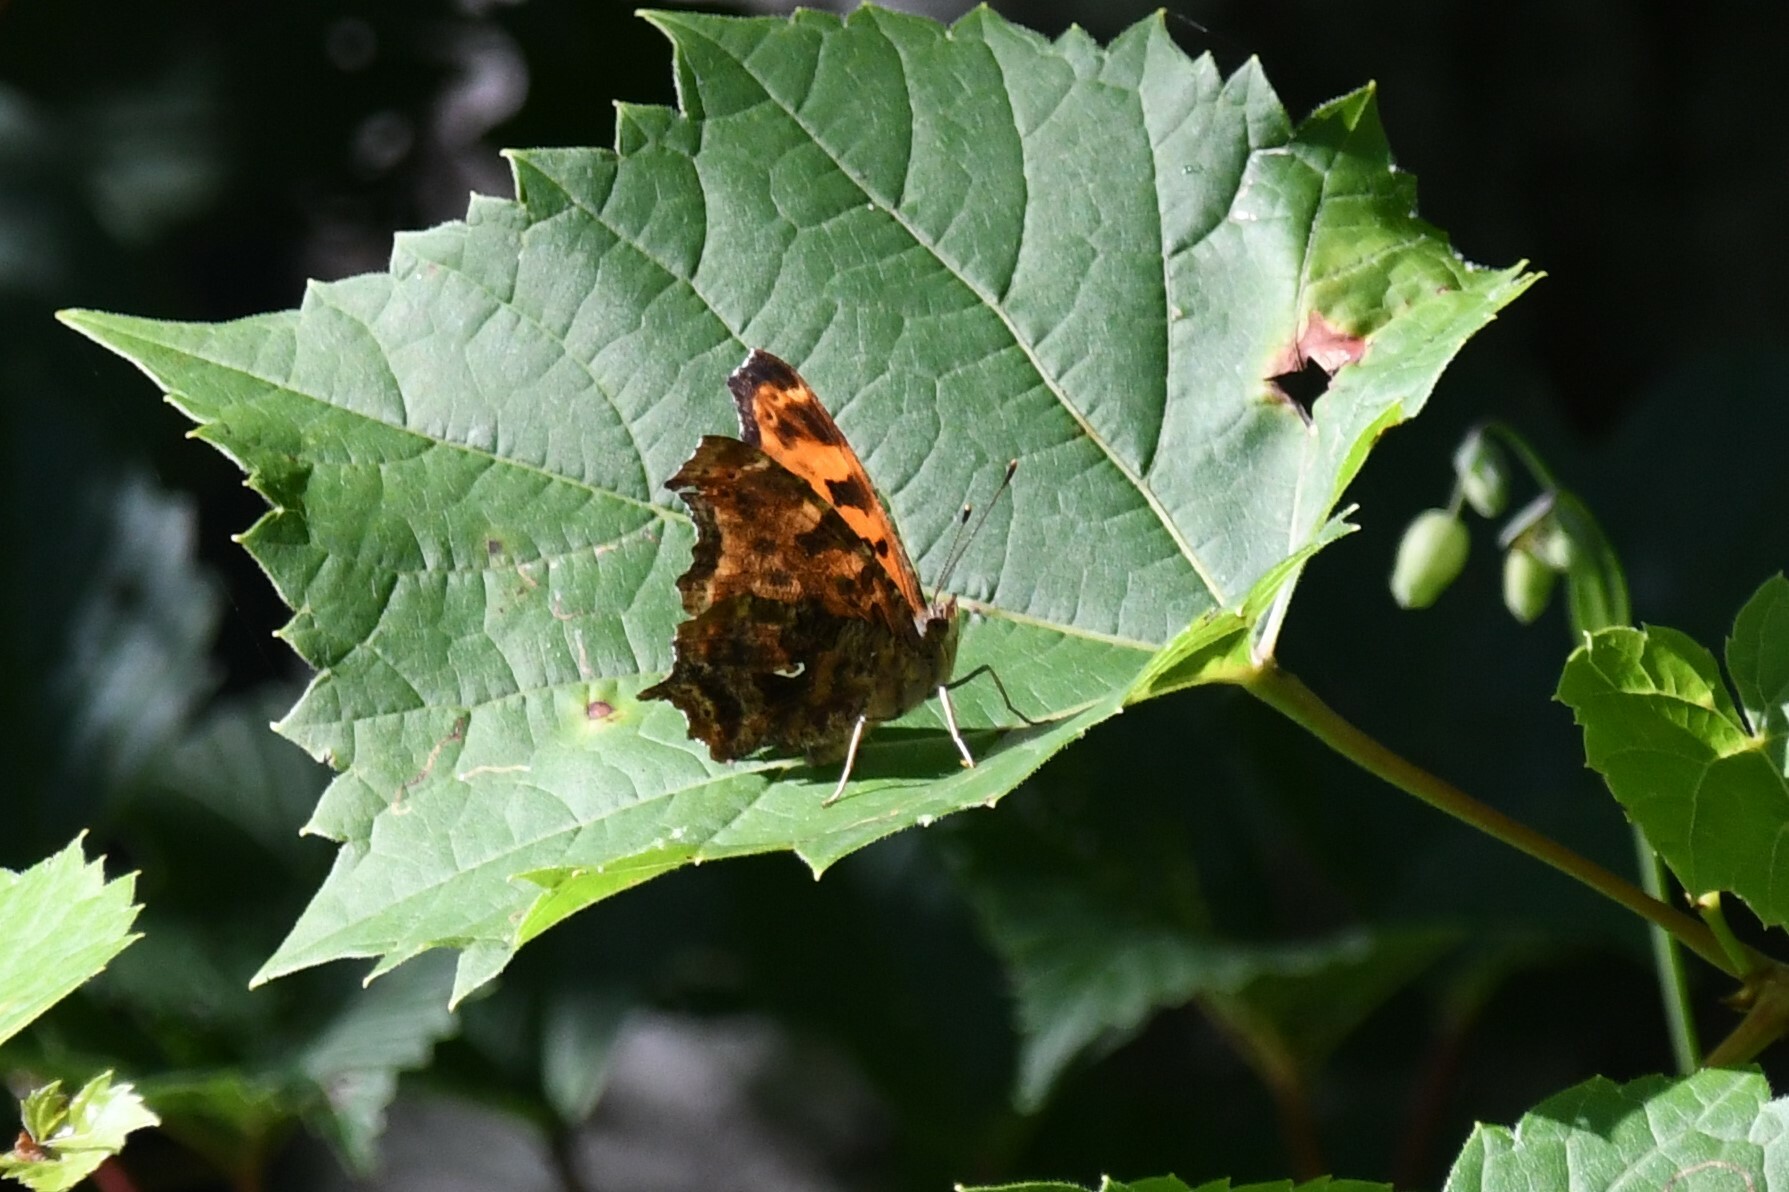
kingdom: Animalia
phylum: Arthropoda
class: Insecta
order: Lepidoptera
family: Nymphalidae
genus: Polygonia
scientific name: Polygonia comma
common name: Eastern comma
